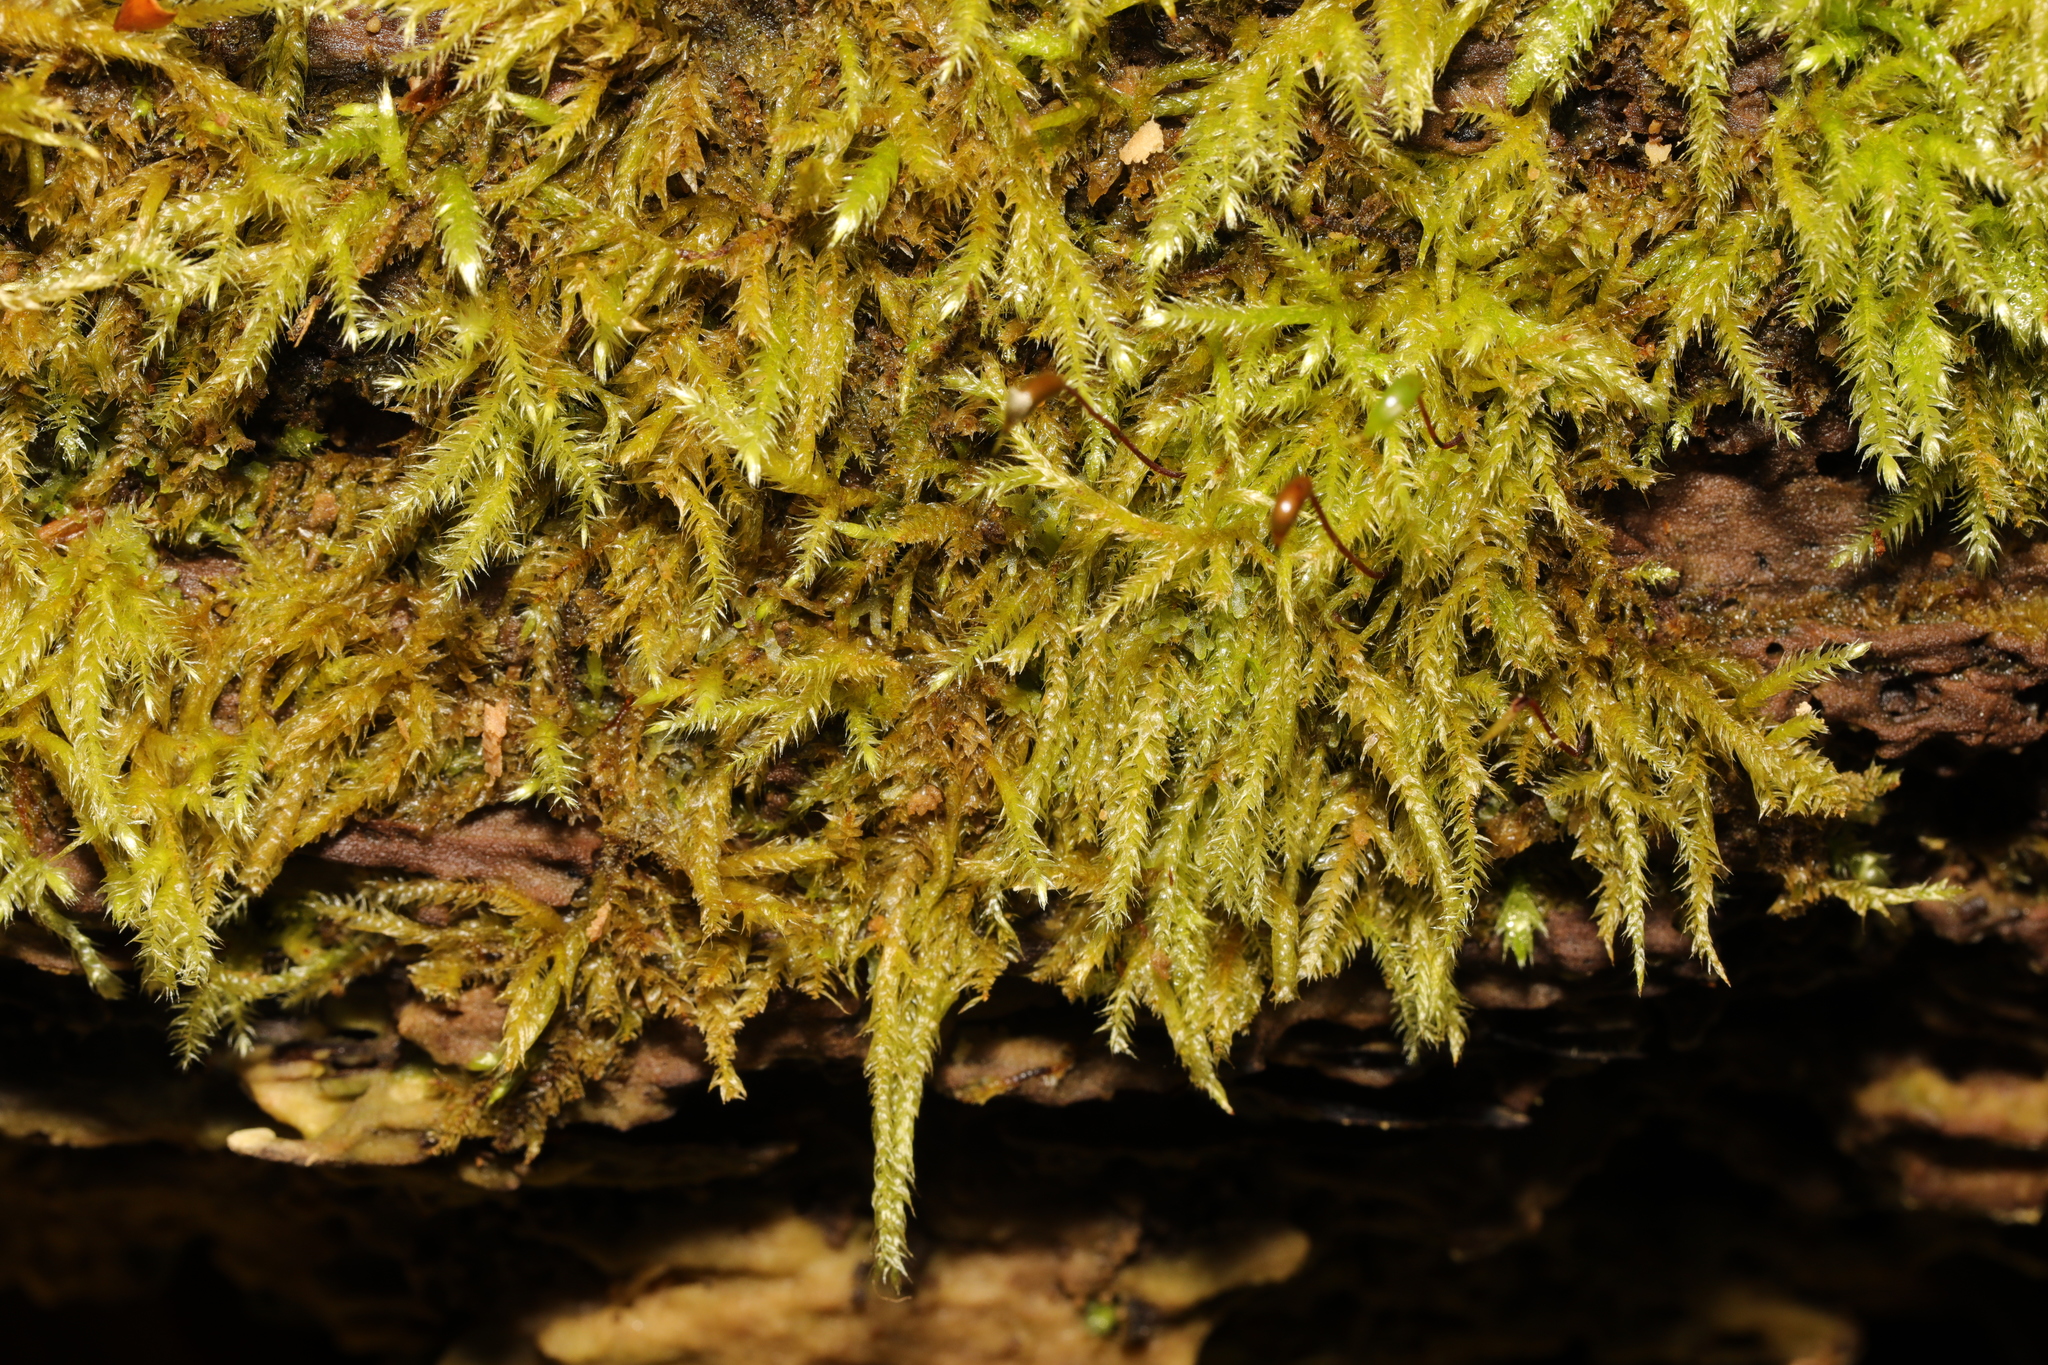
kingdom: Plantae
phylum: Bryophyta
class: Bryopsida
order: Hypnales
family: Brachytheciaceae
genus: Brachythecium
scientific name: Brachythecium rutabulum
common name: Rough-stalked feather-moss
